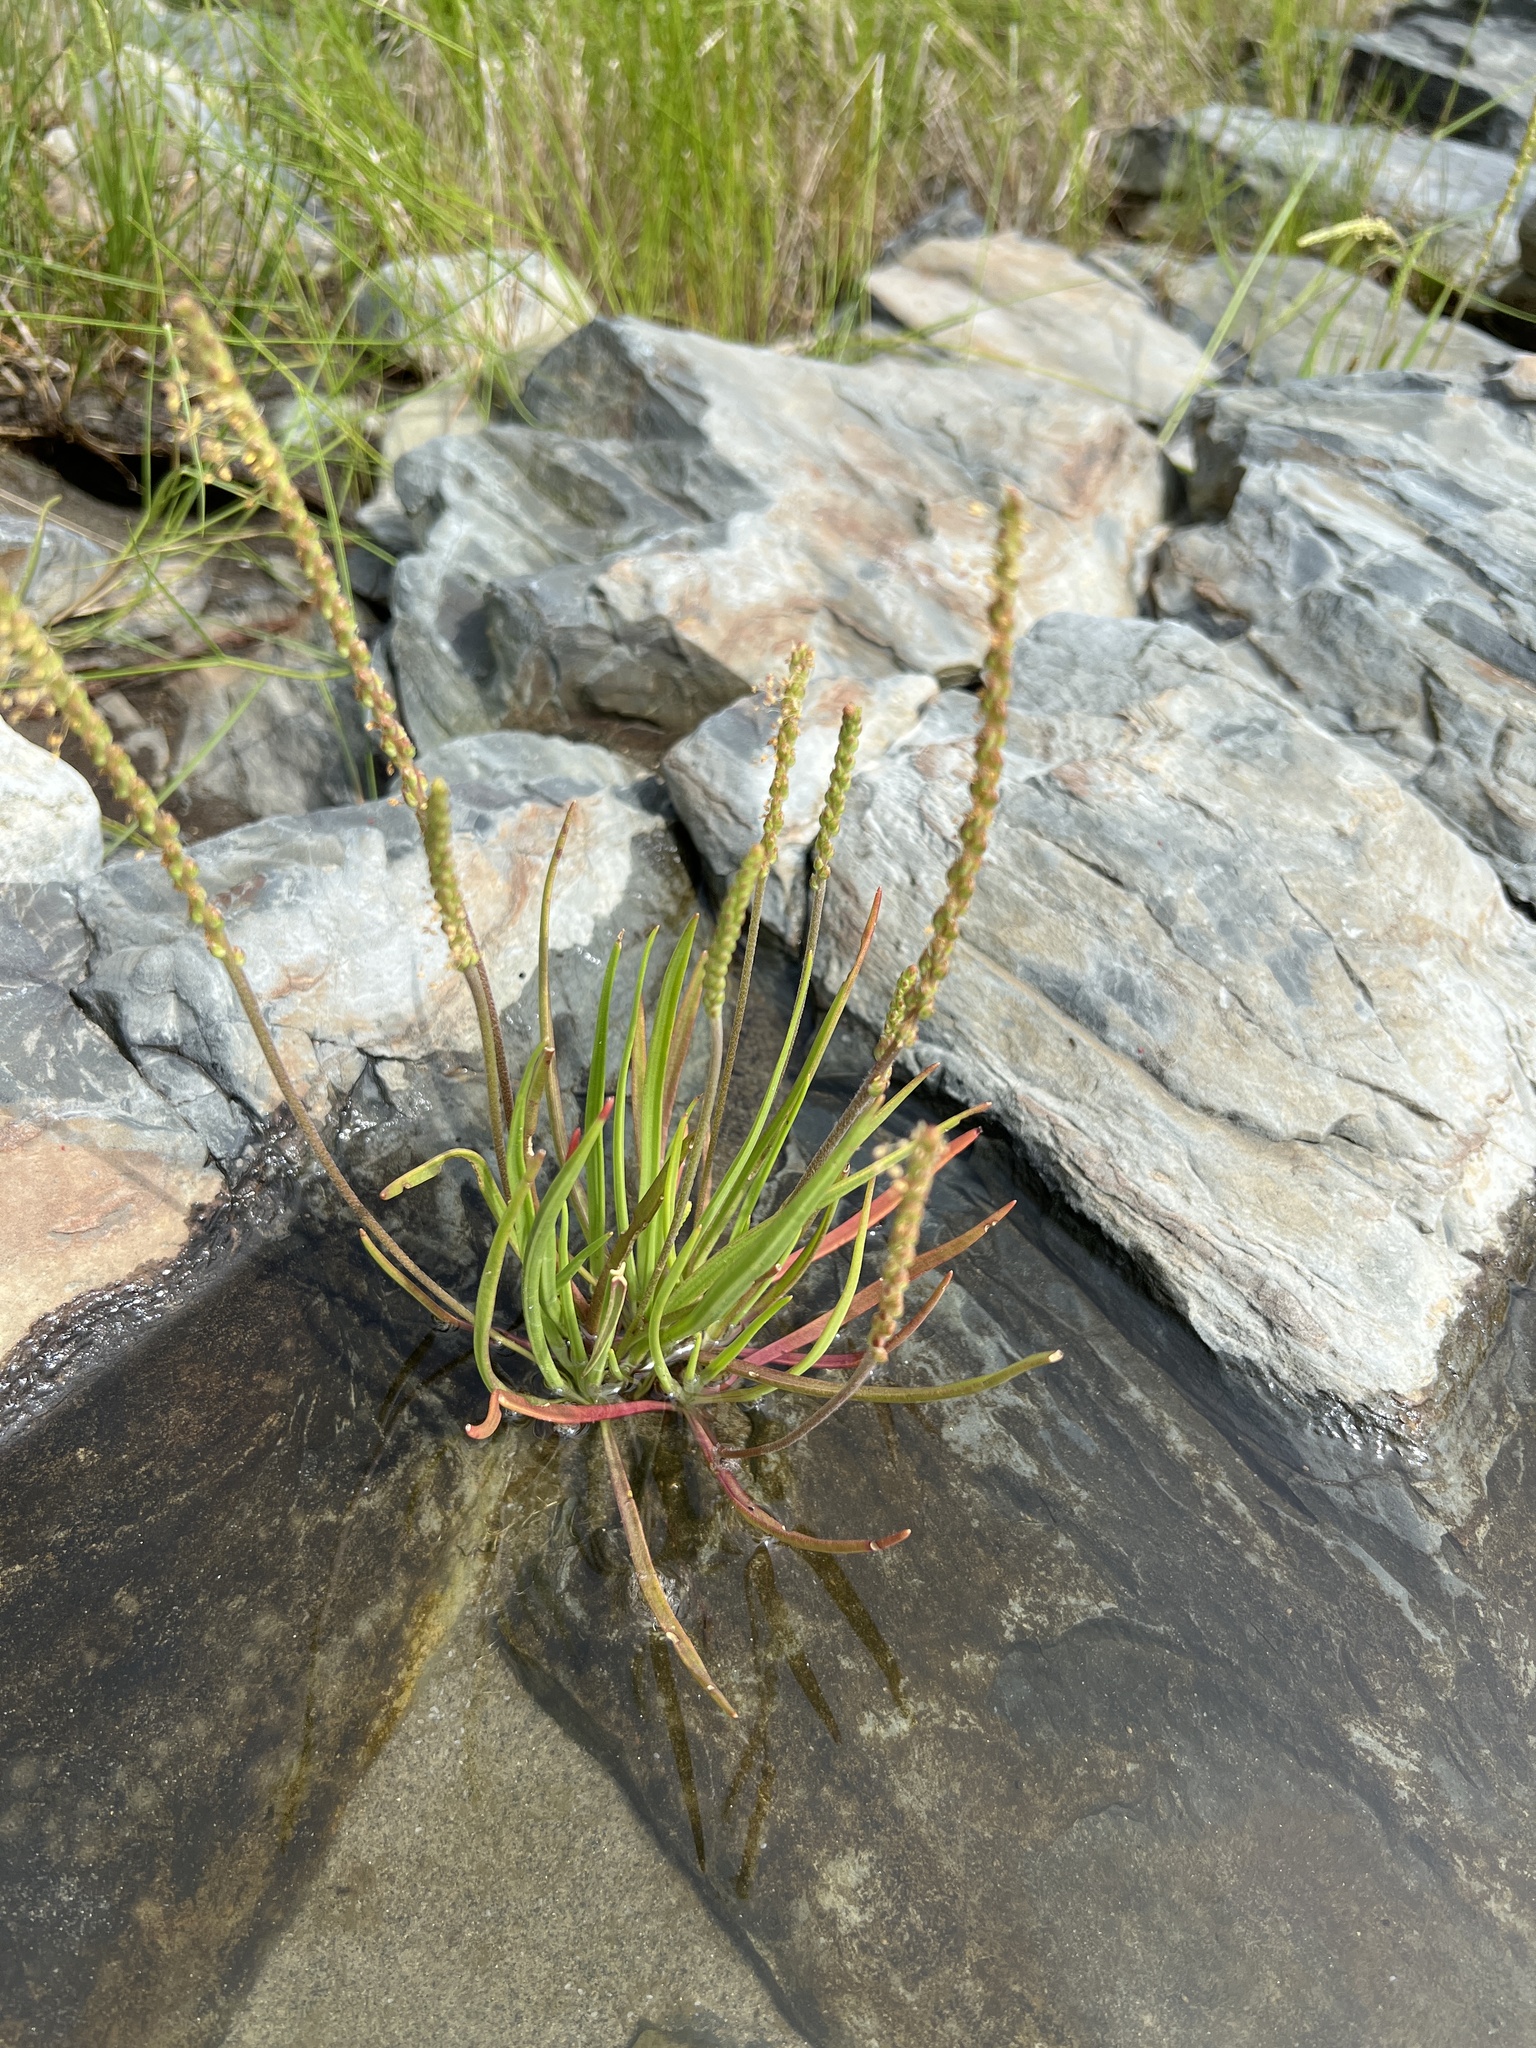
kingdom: Plantae
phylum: Tracheophyta
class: Magnoliopsida
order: Lamiales
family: Plantaginaceae
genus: Plantago
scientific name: Plantago maritima
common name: Sea plantain
